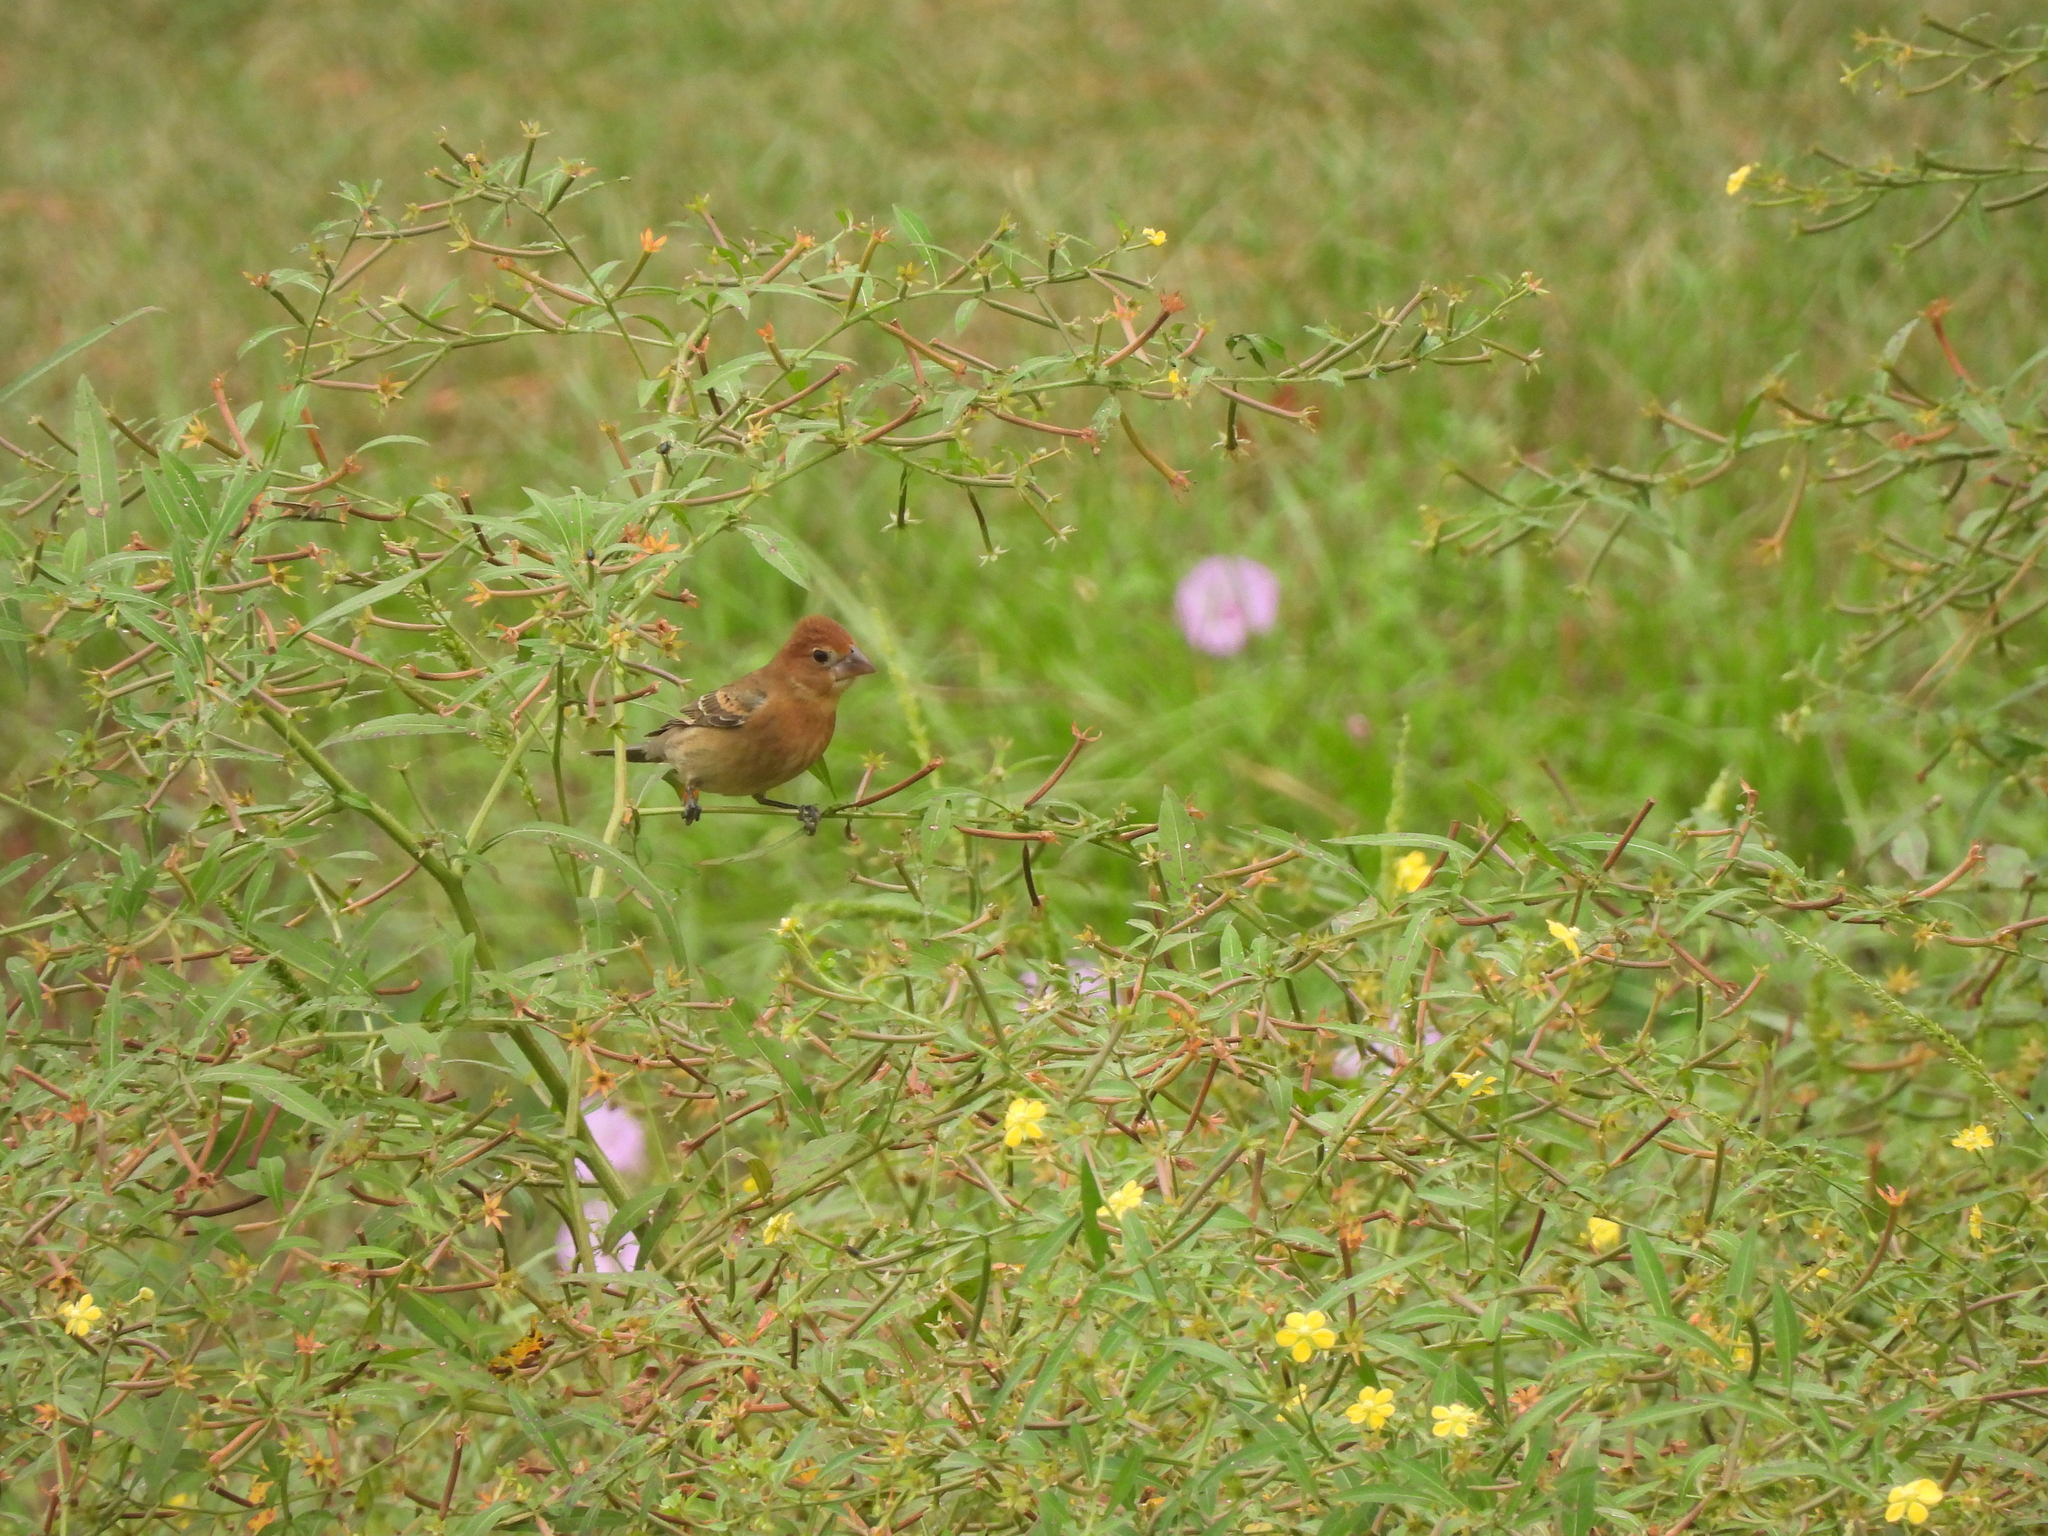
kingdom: Animalia
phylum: Chordata
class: Aves
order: Passeriformes
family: Cardinalidae
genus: Passerina
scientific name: Passerina caerulea
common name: Blue grosbeak
